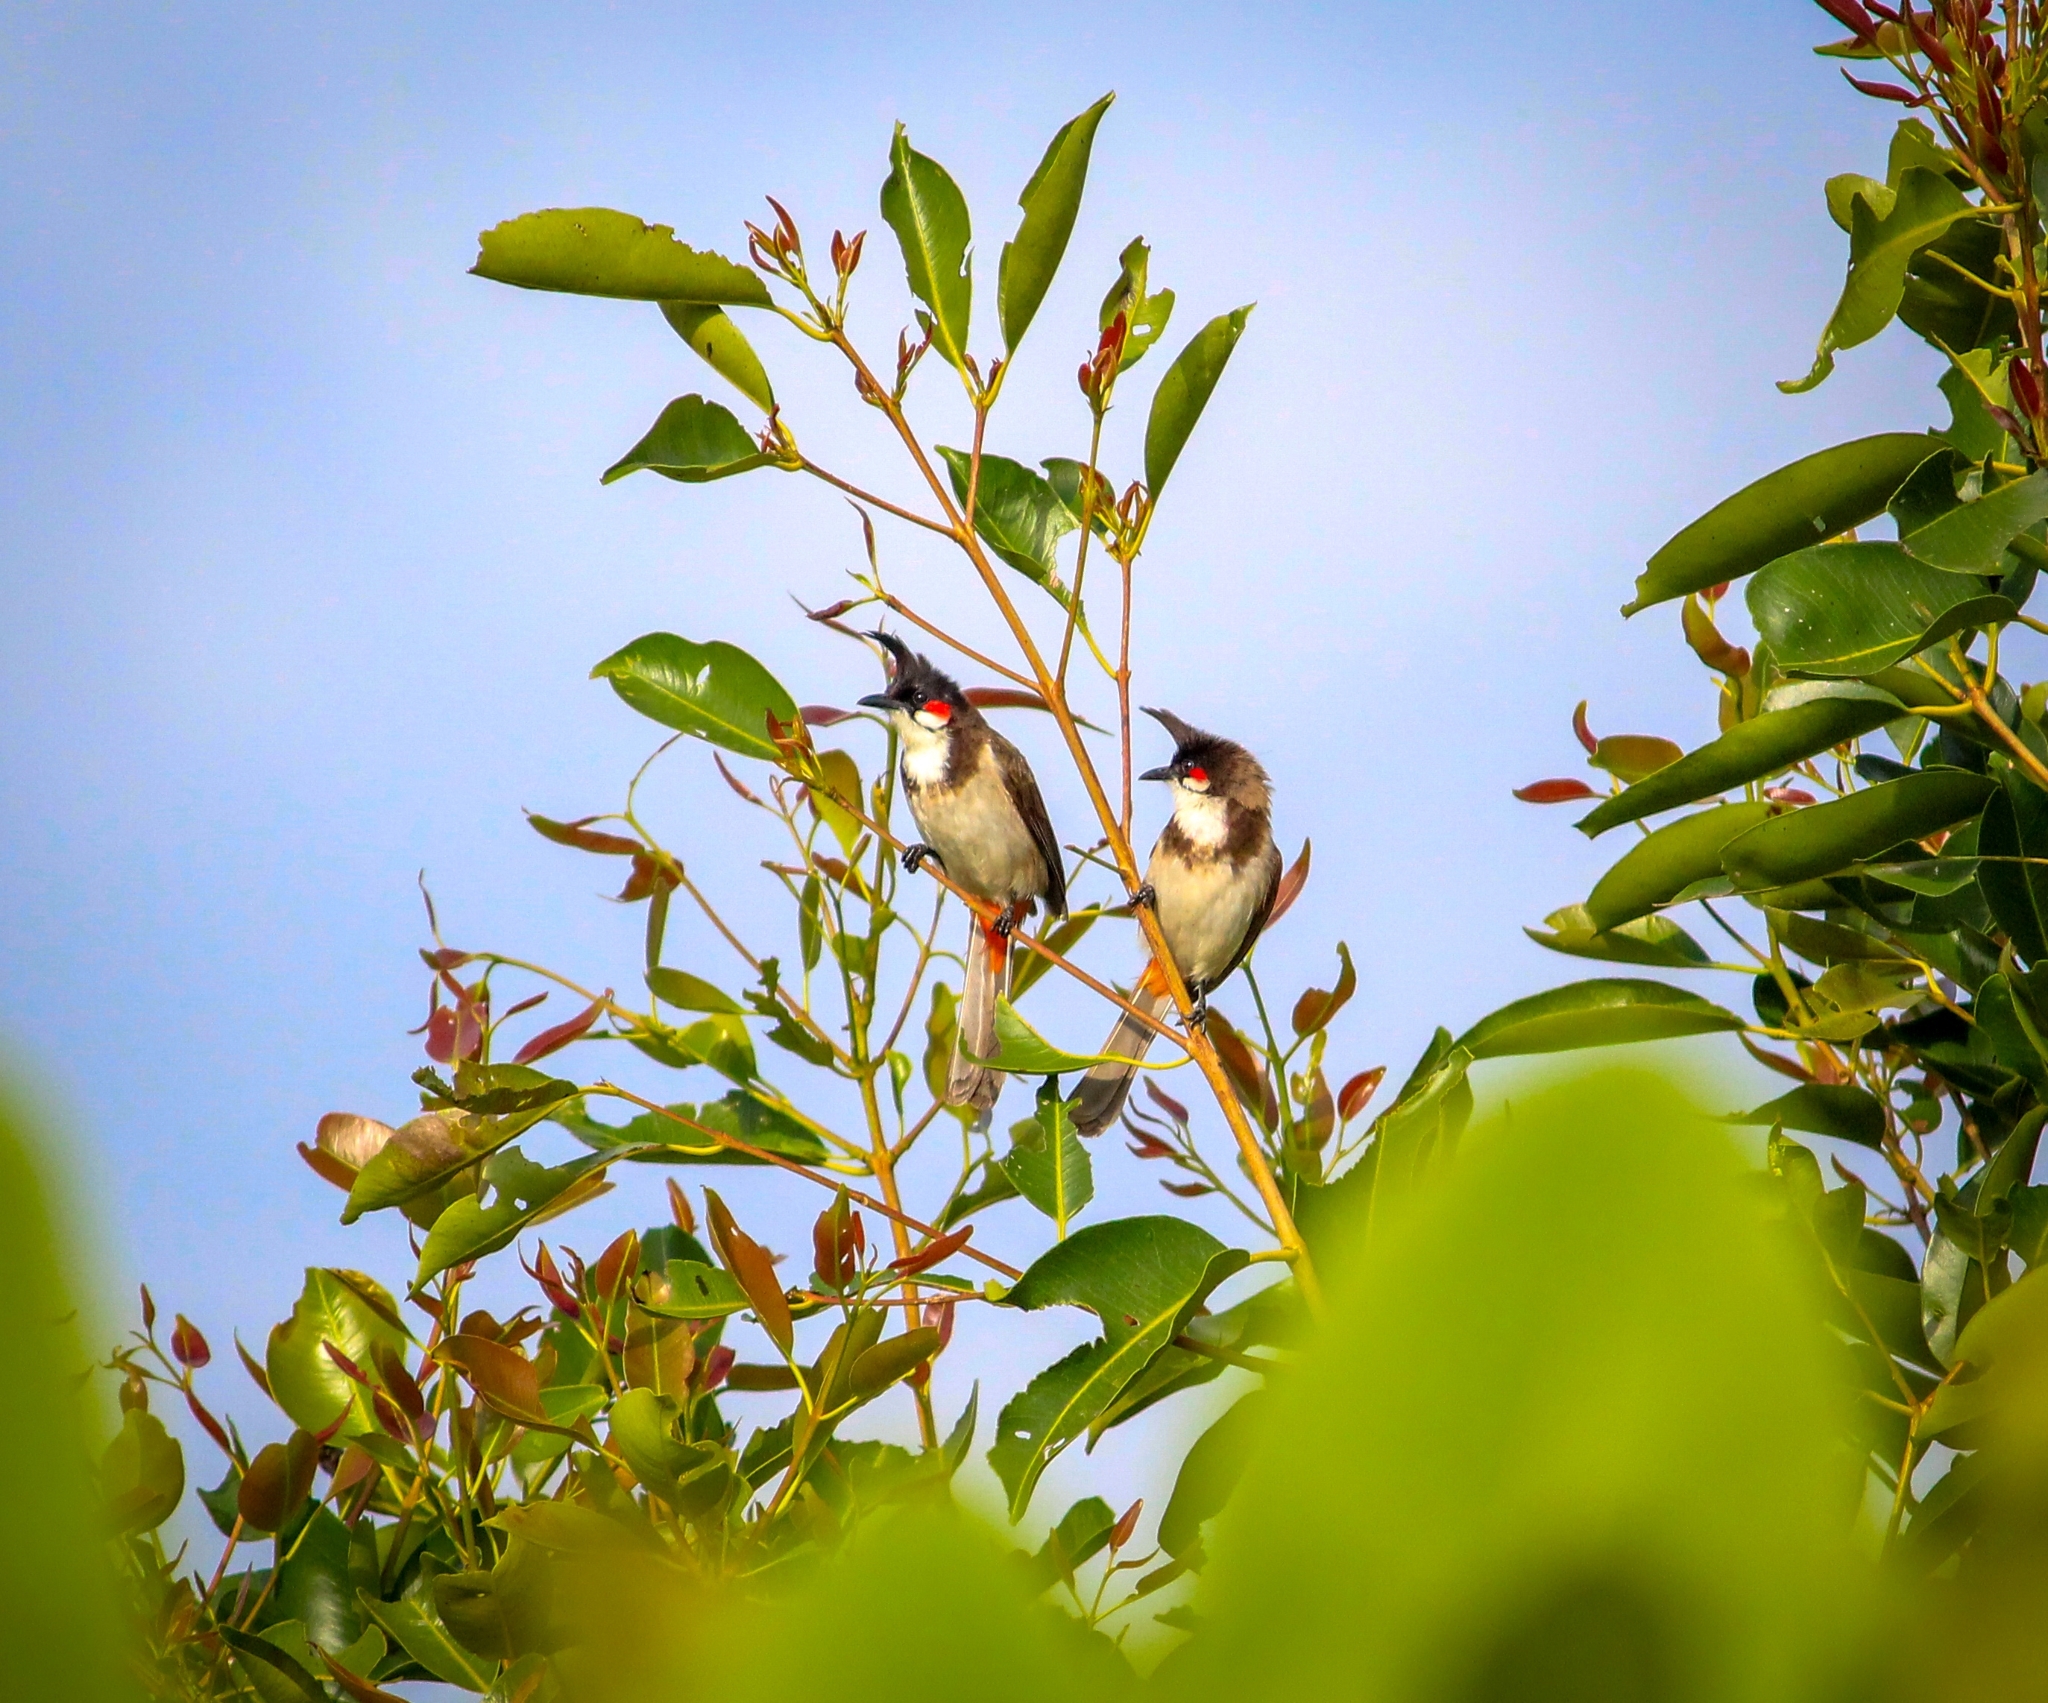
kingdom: Animalia
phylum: Chordata
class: Aves
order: Passeriformes
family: Pycnonotidae
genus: Pycnonotus
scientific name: Pycnonotus jocosus
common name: Red-whiskered bulbul
